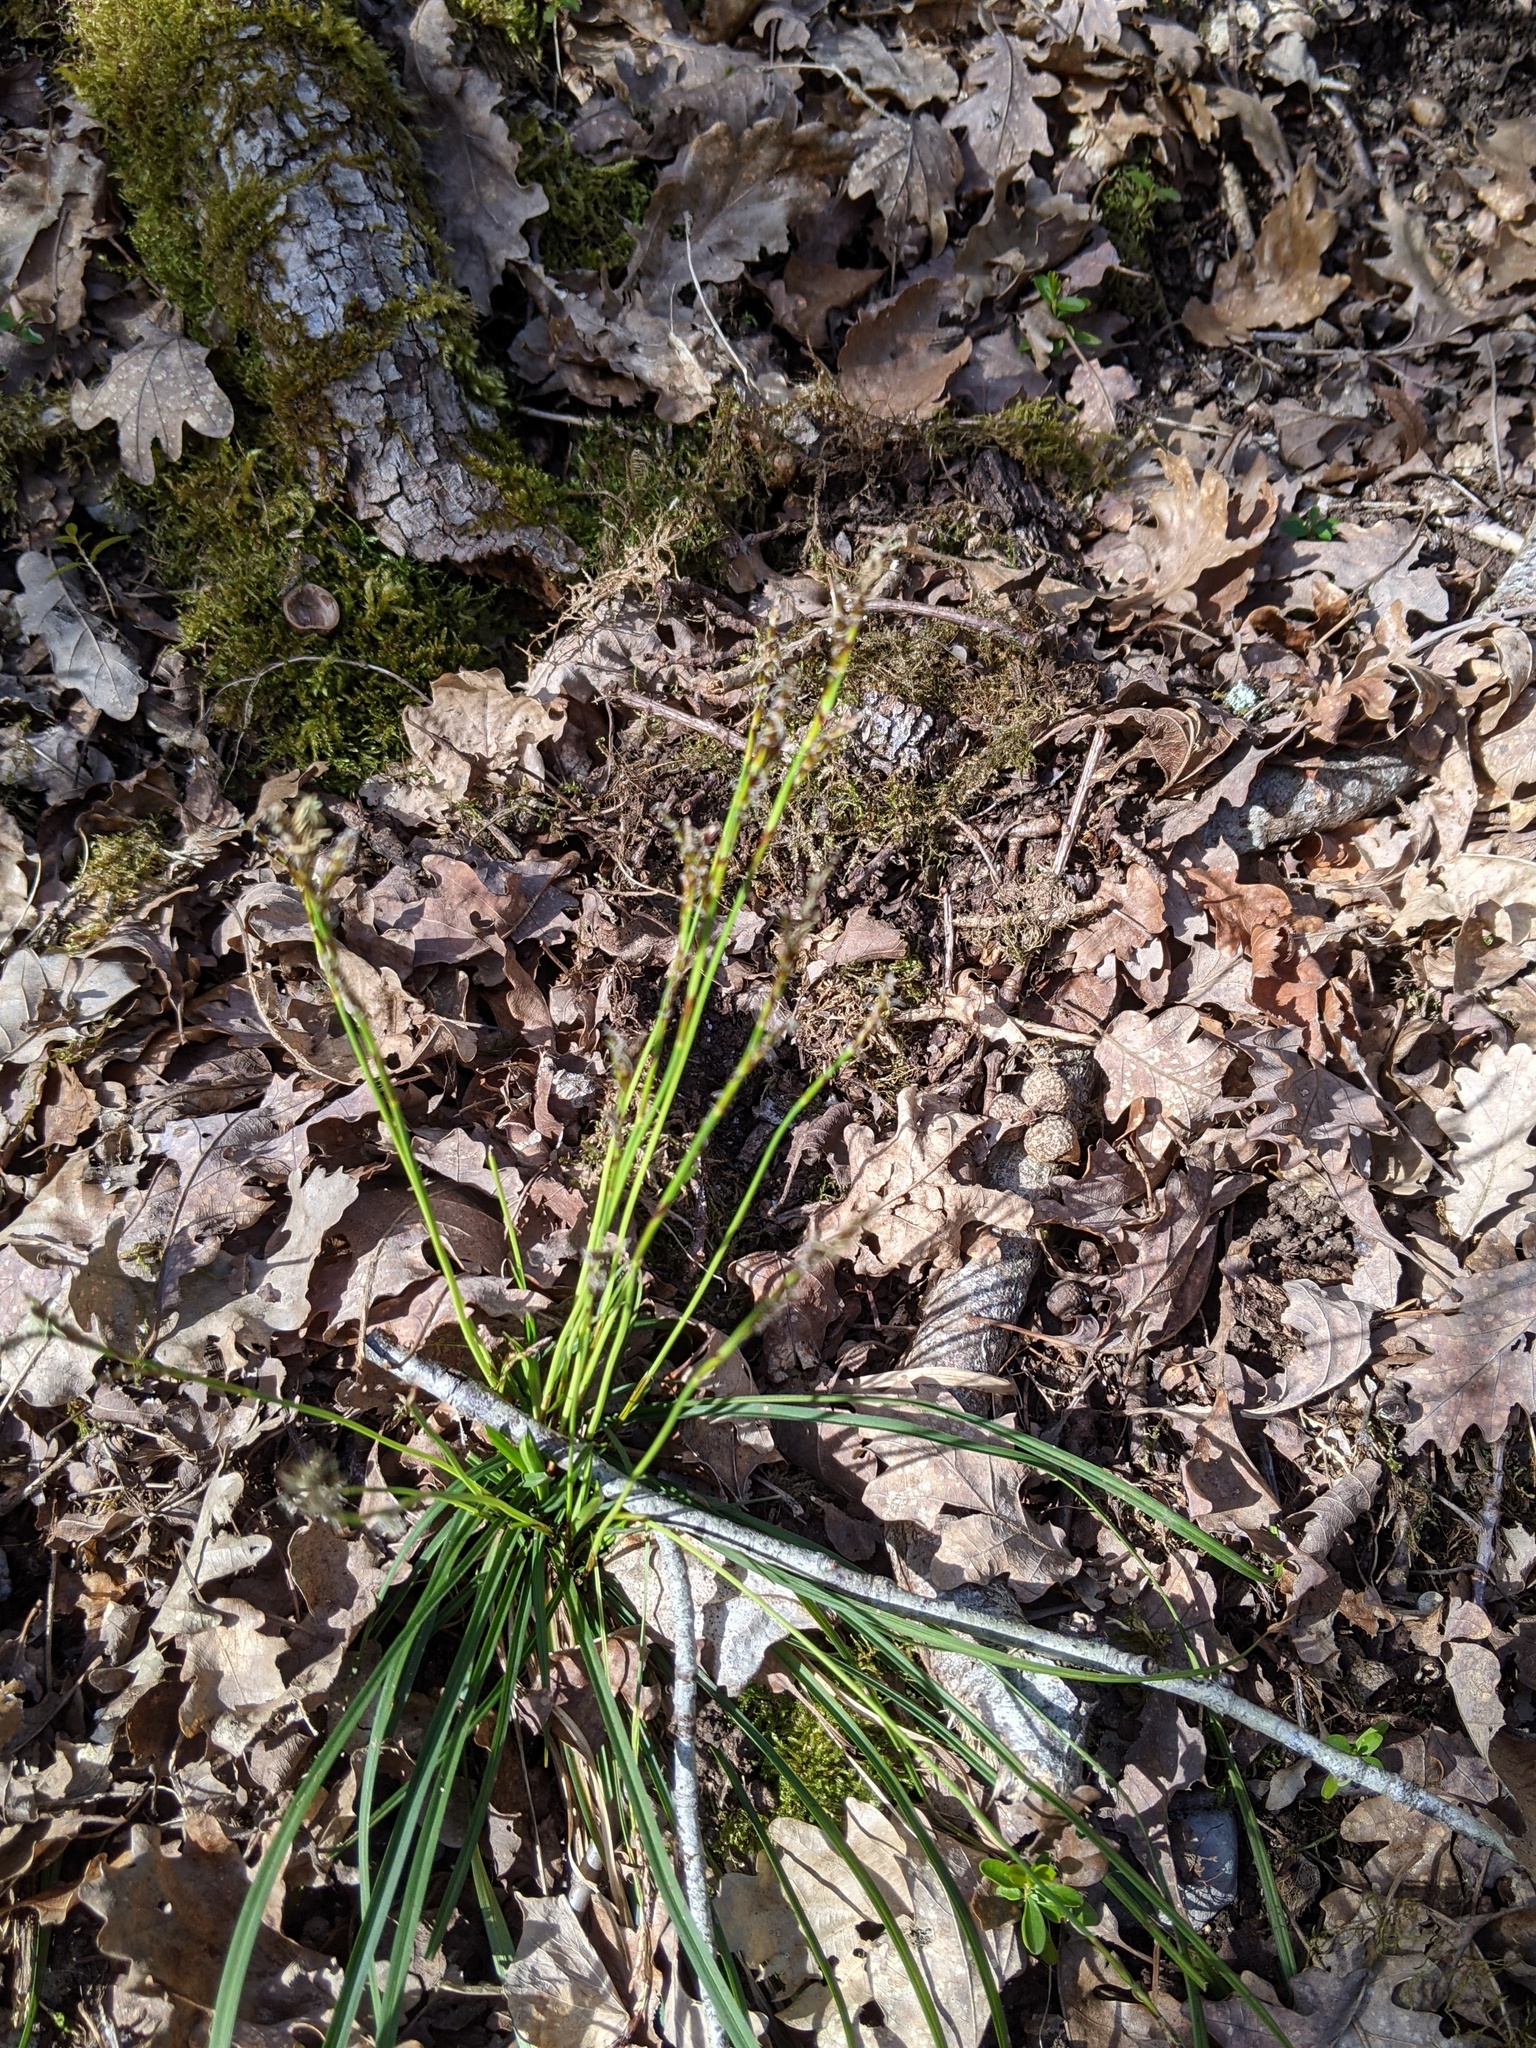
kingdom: Plantae
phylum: Tracheophyta
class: Liliopsida
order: Poales
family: Cyperaceae
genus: Carex
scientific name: Carex digitata
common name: Fingered sedge
